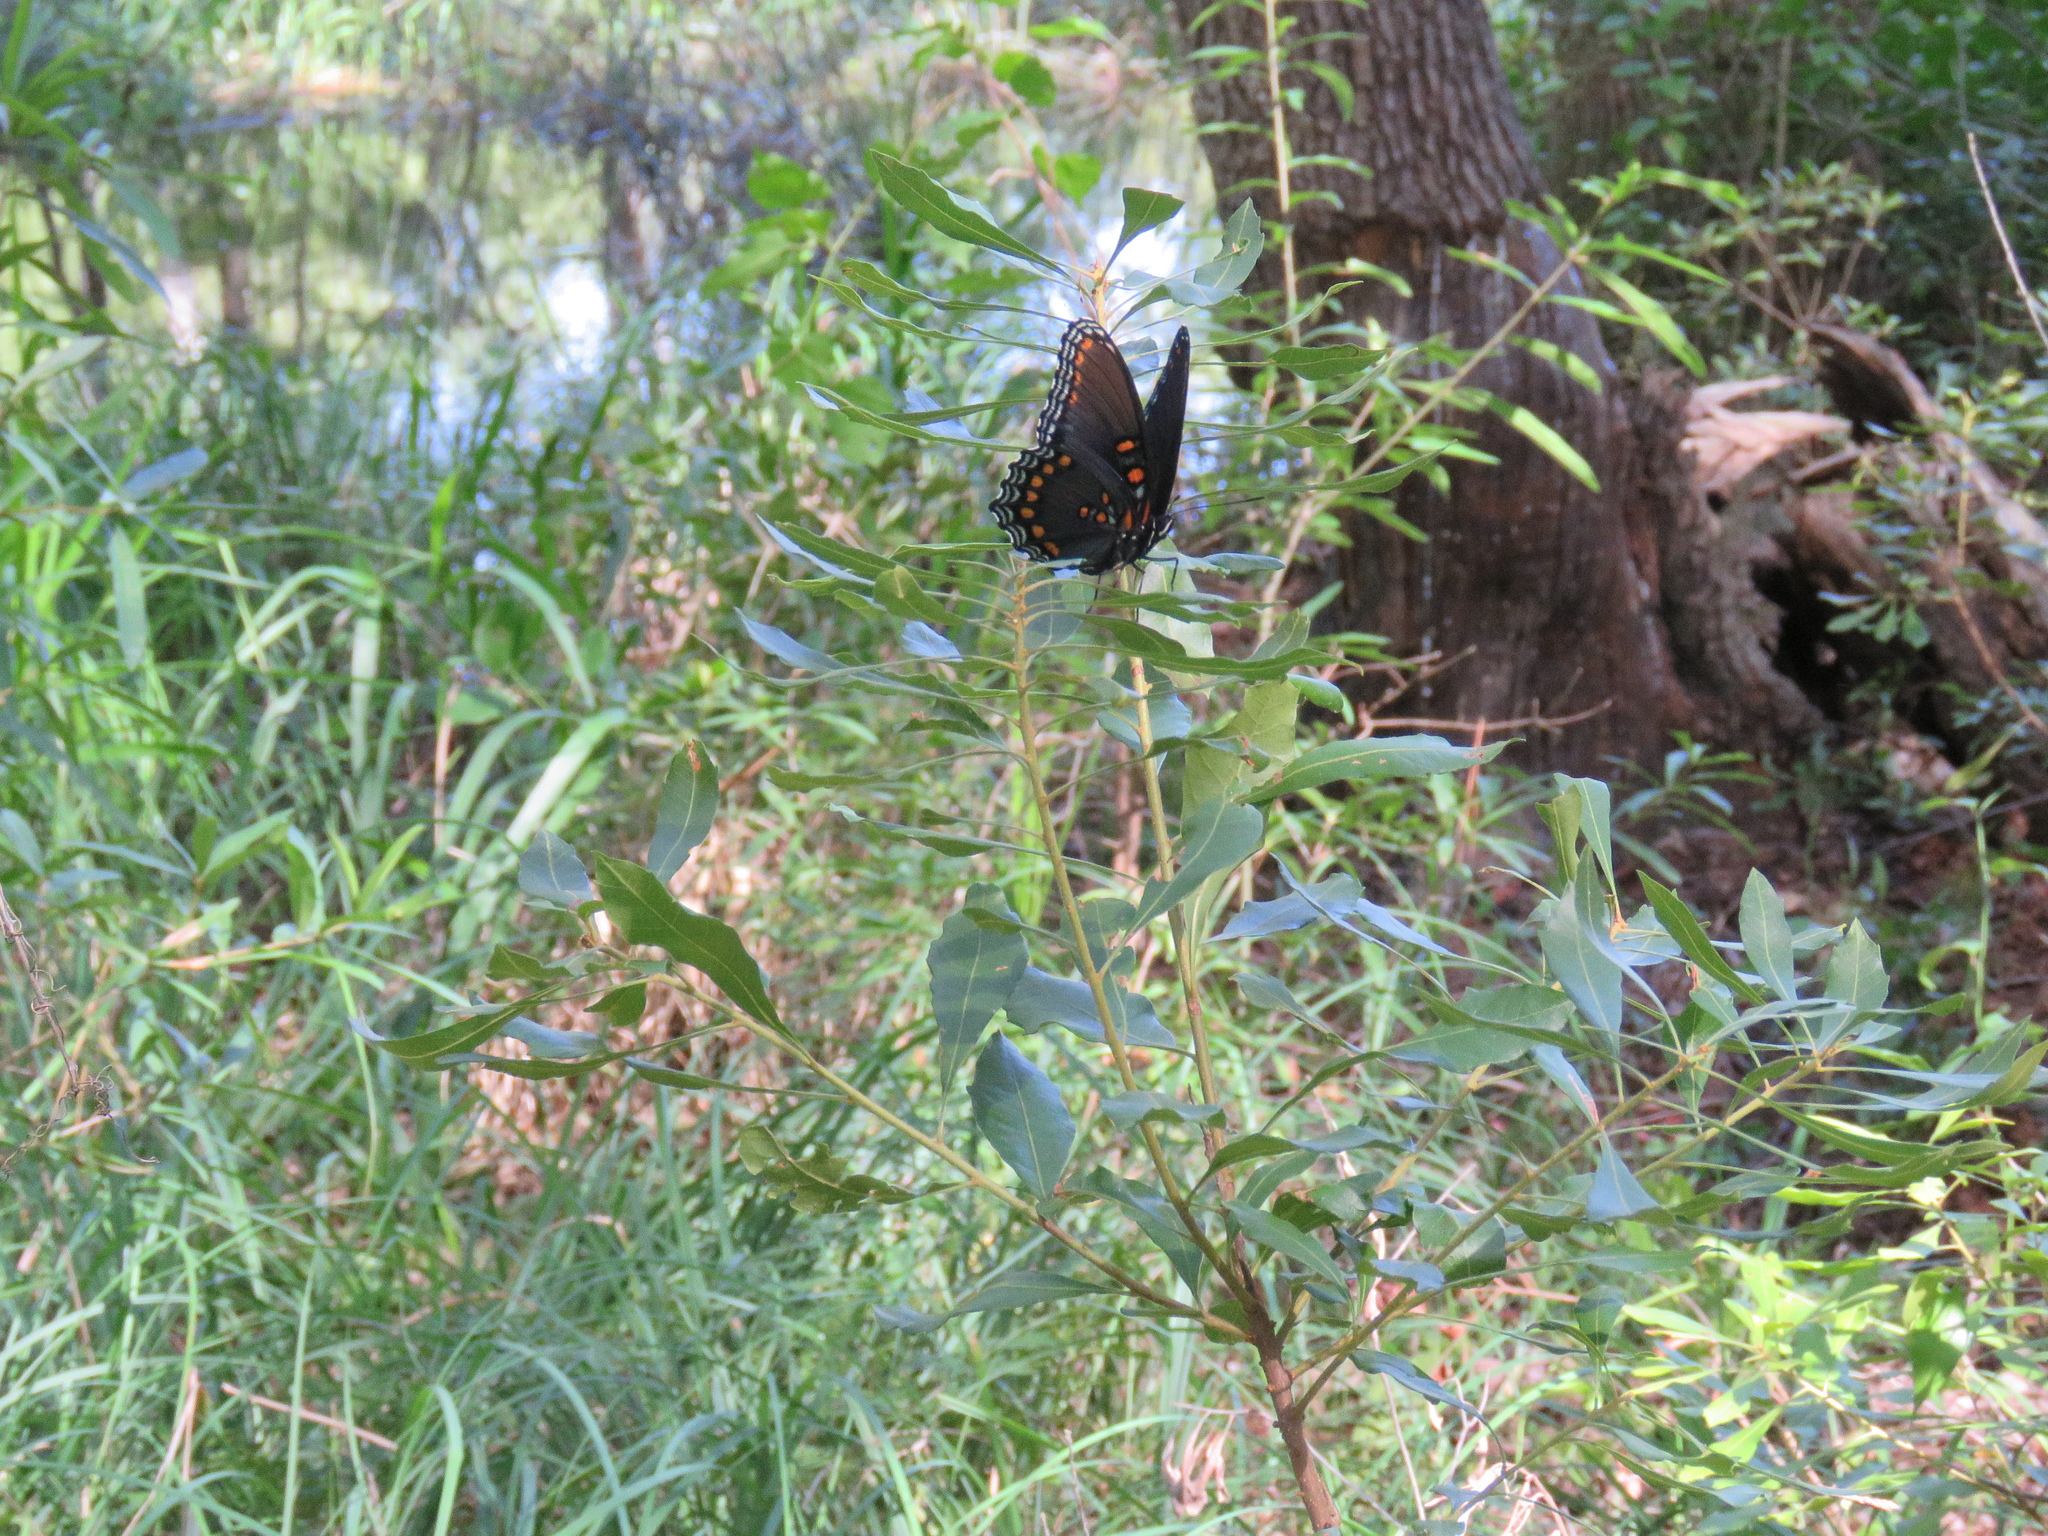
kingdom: Animalia
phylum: Arthropoda
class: Insecta
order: Lepidoptera
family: Nymphalidae
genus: Limenitis
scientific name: Limenitis astyanax
